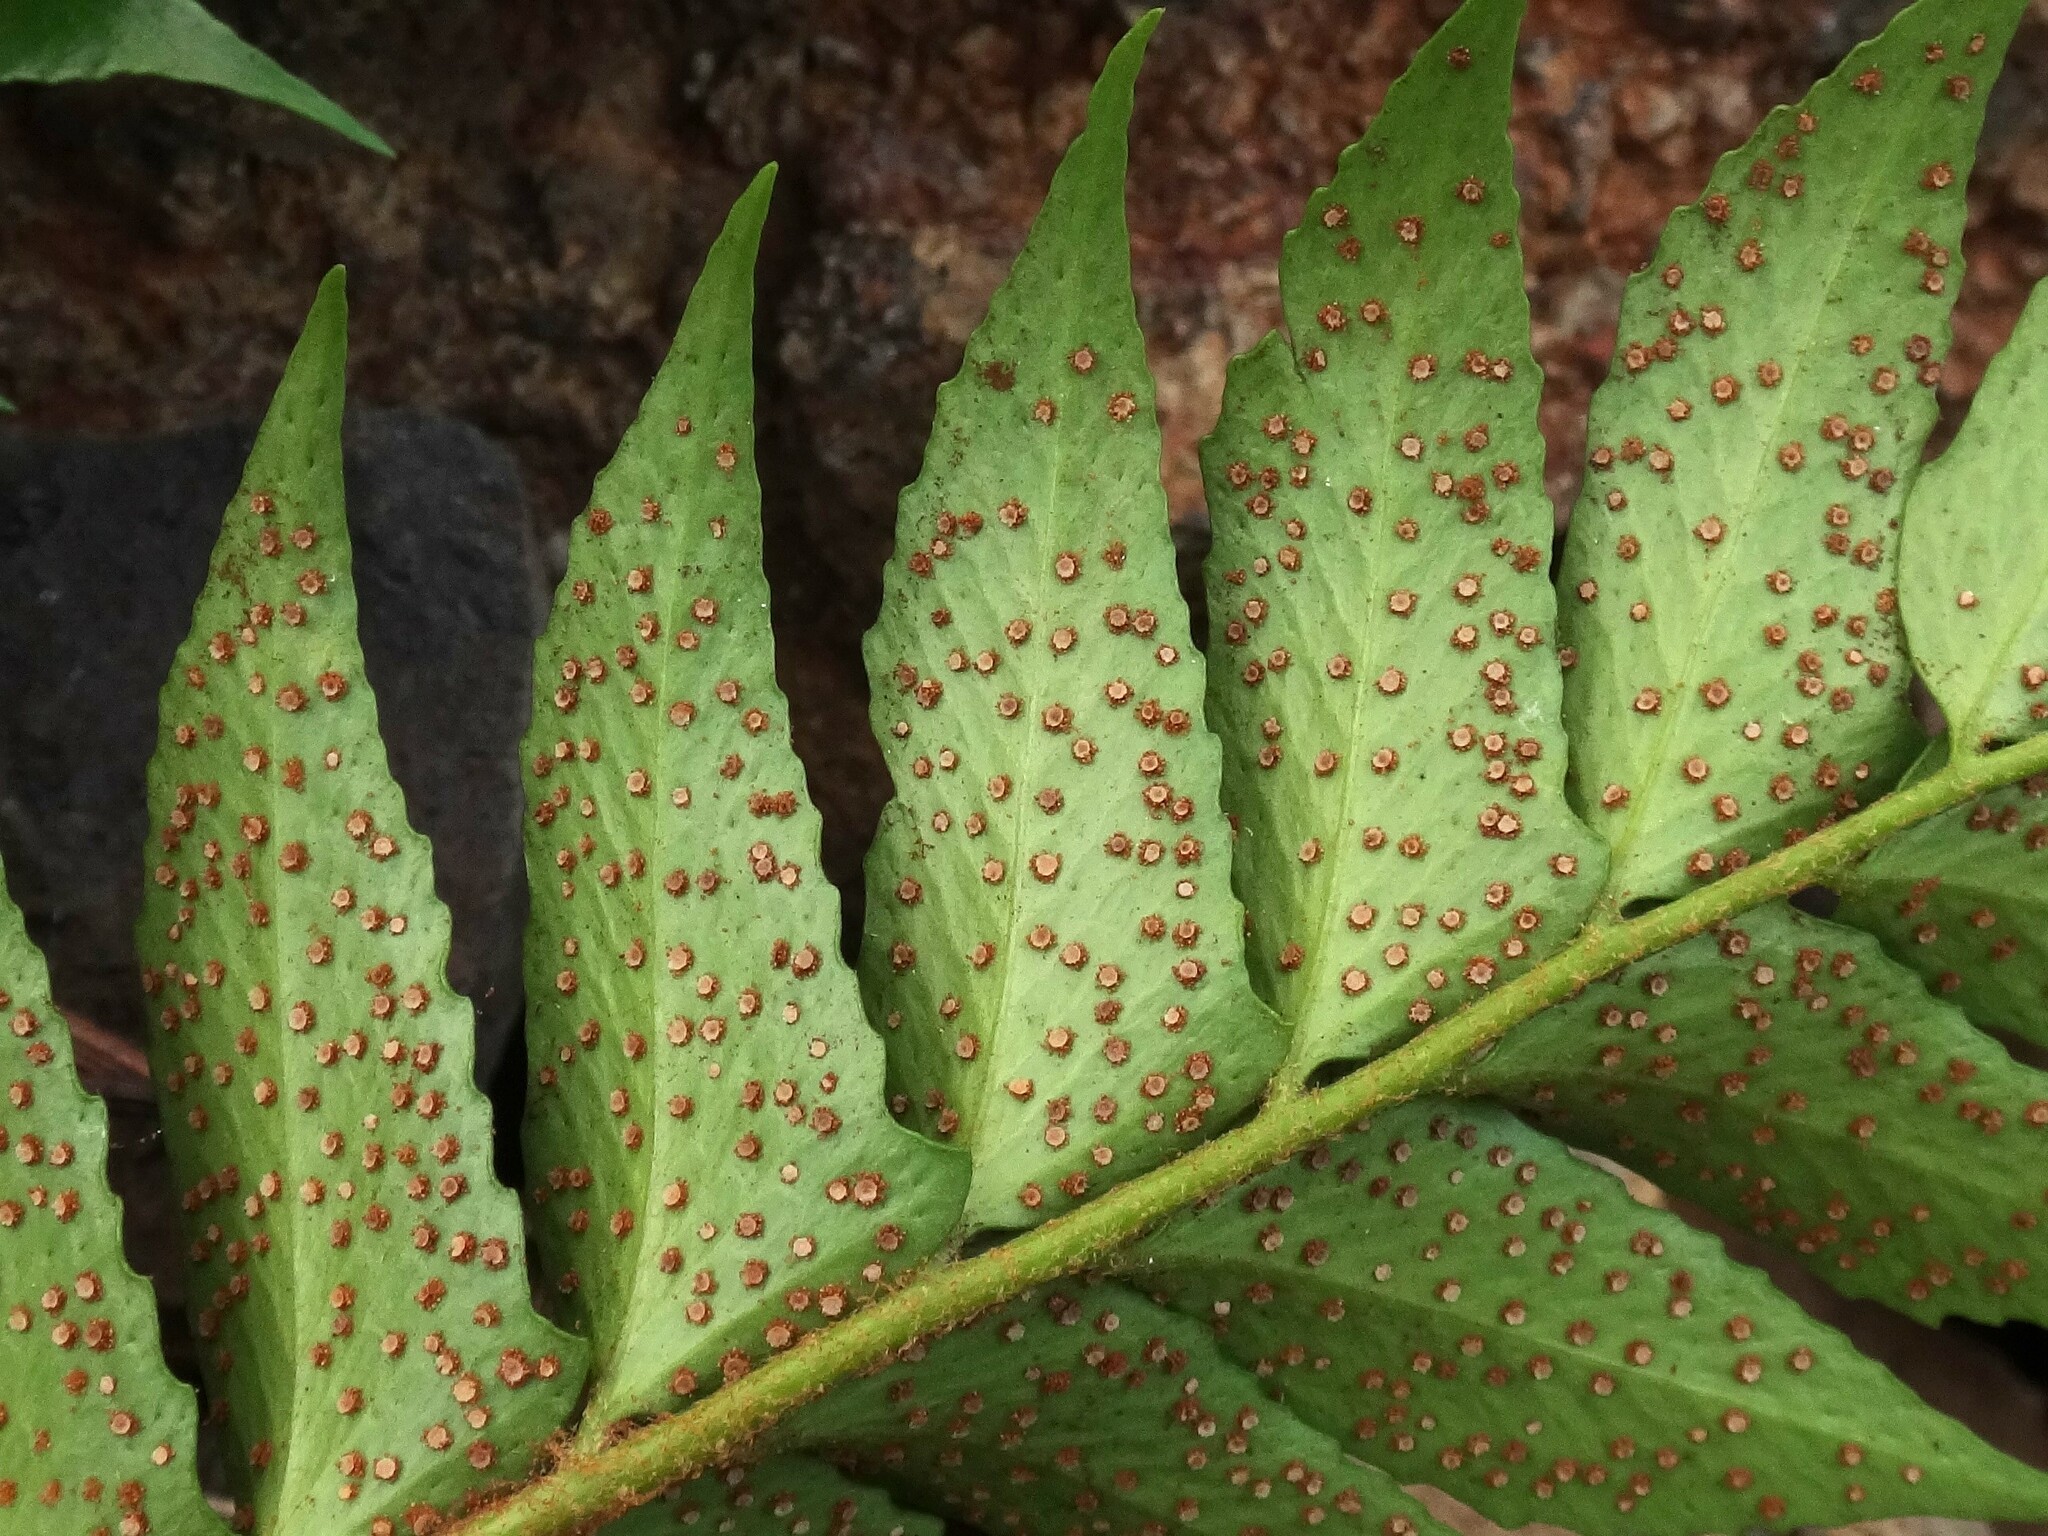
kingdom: Plantae
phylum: Tracheophyta
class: Polypodiopsida
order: Polypodiales
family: Dryopteridaceae
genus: Cyrtomium
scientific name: Cyrtomium falcatum
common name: House holly-fern
